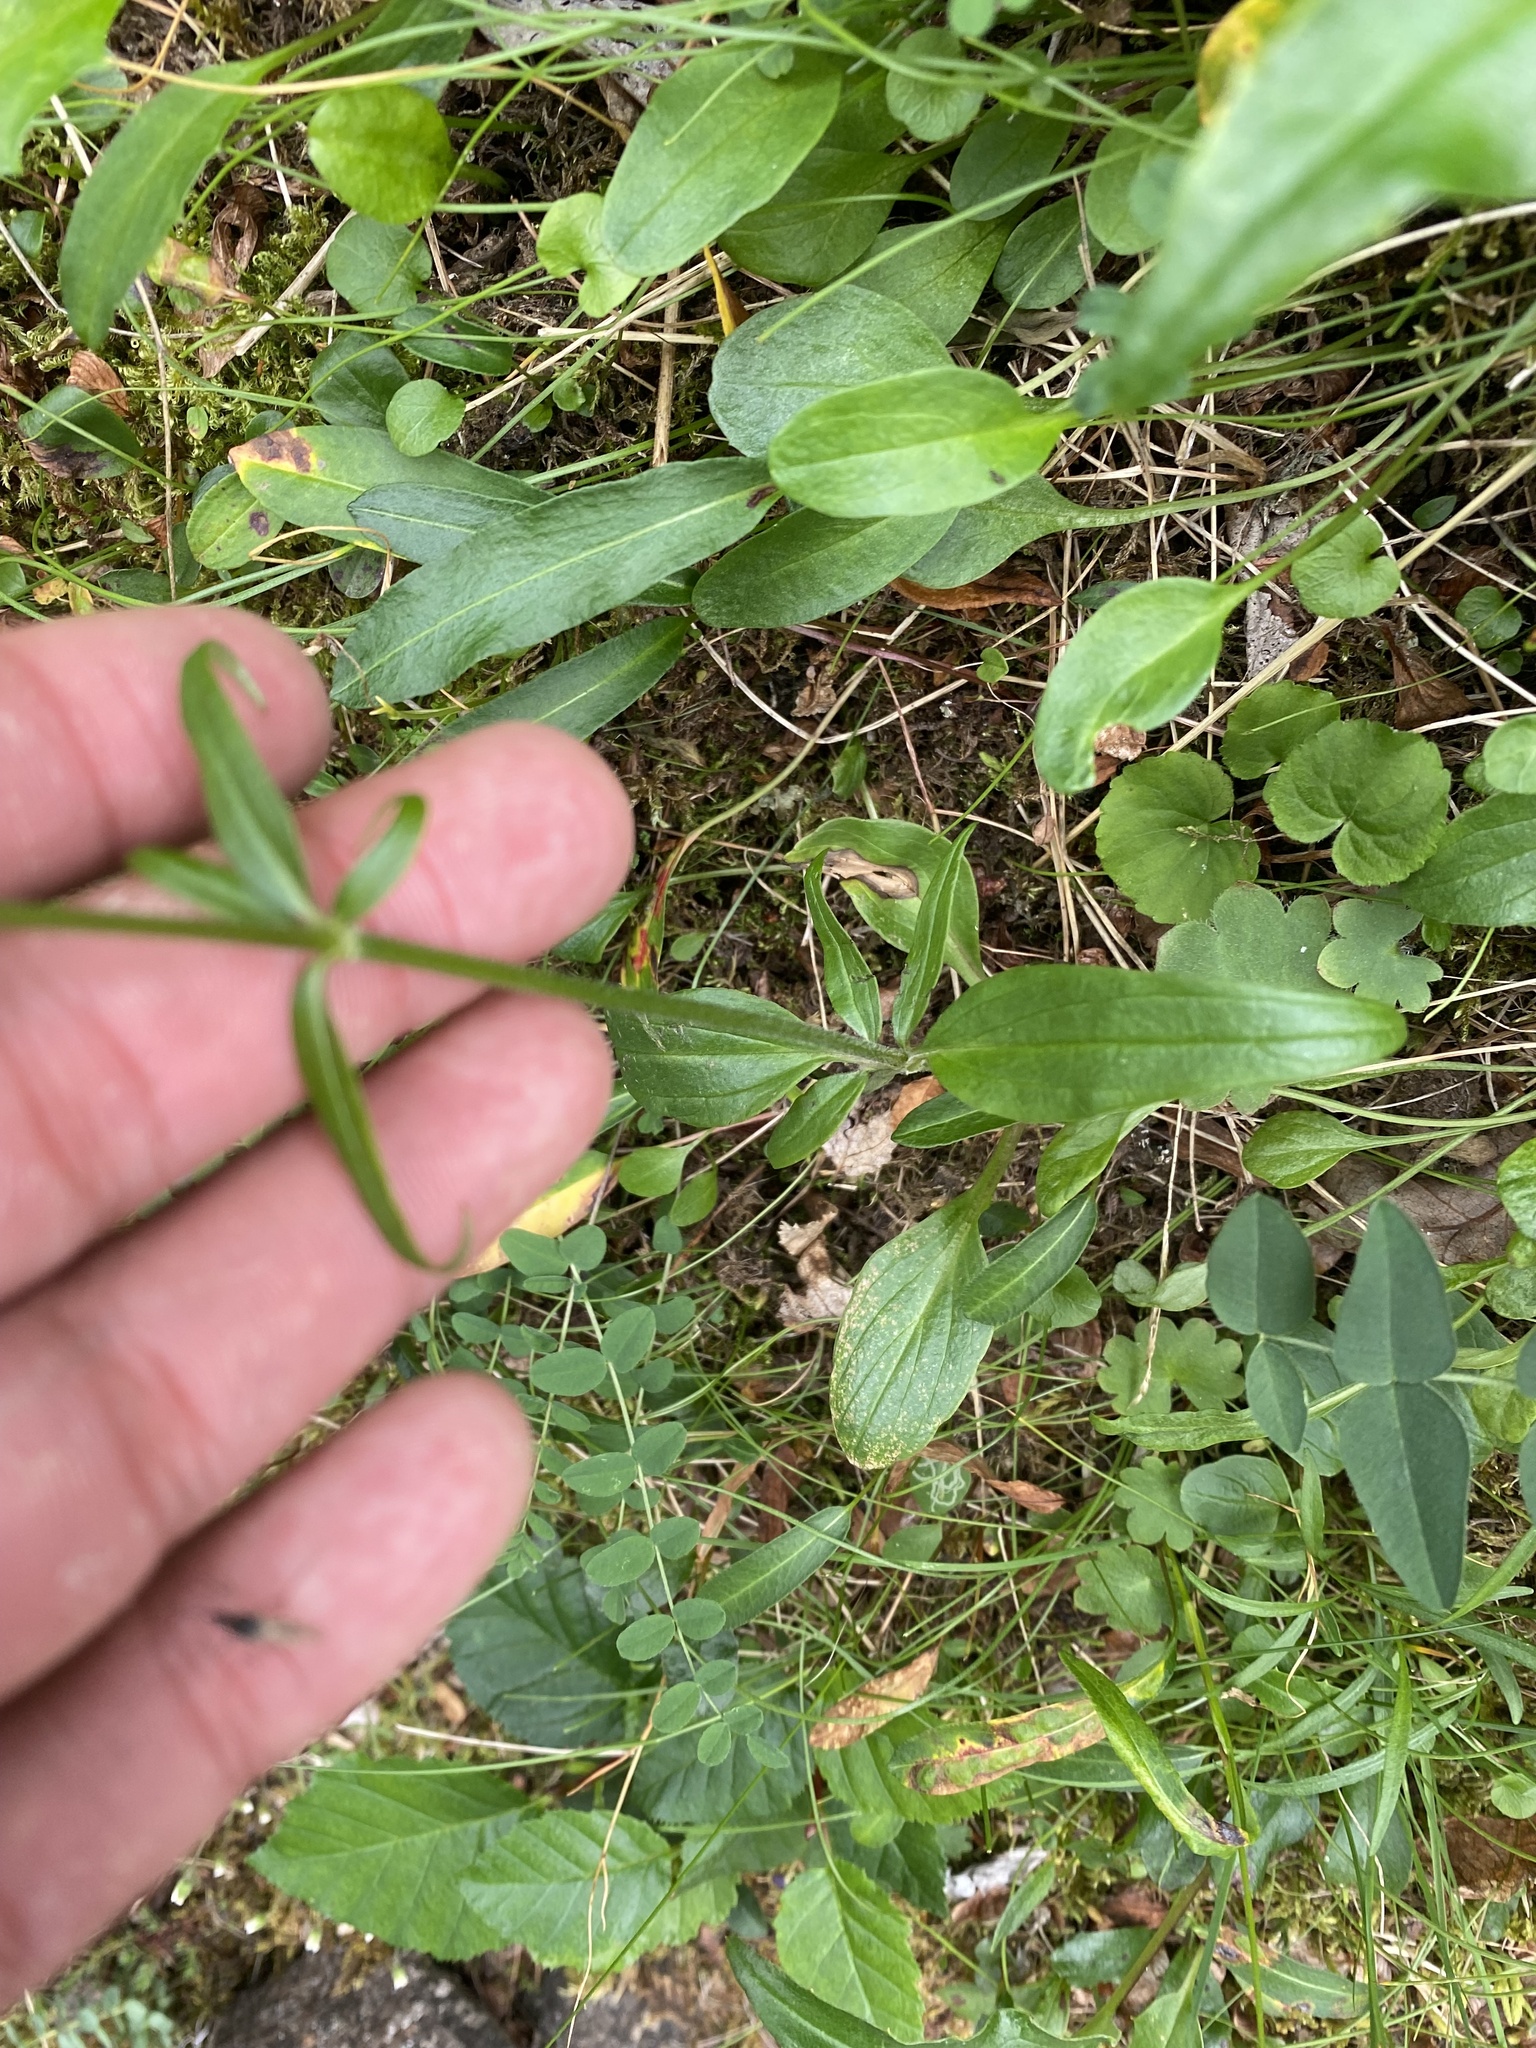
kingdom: Plantae
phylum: Tracheophyta
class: Magnoliopsida
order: Dipsacales
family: Caprifoliaceae
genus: Valeriana
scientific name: Valeriana capitata
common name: Capitate valerian
